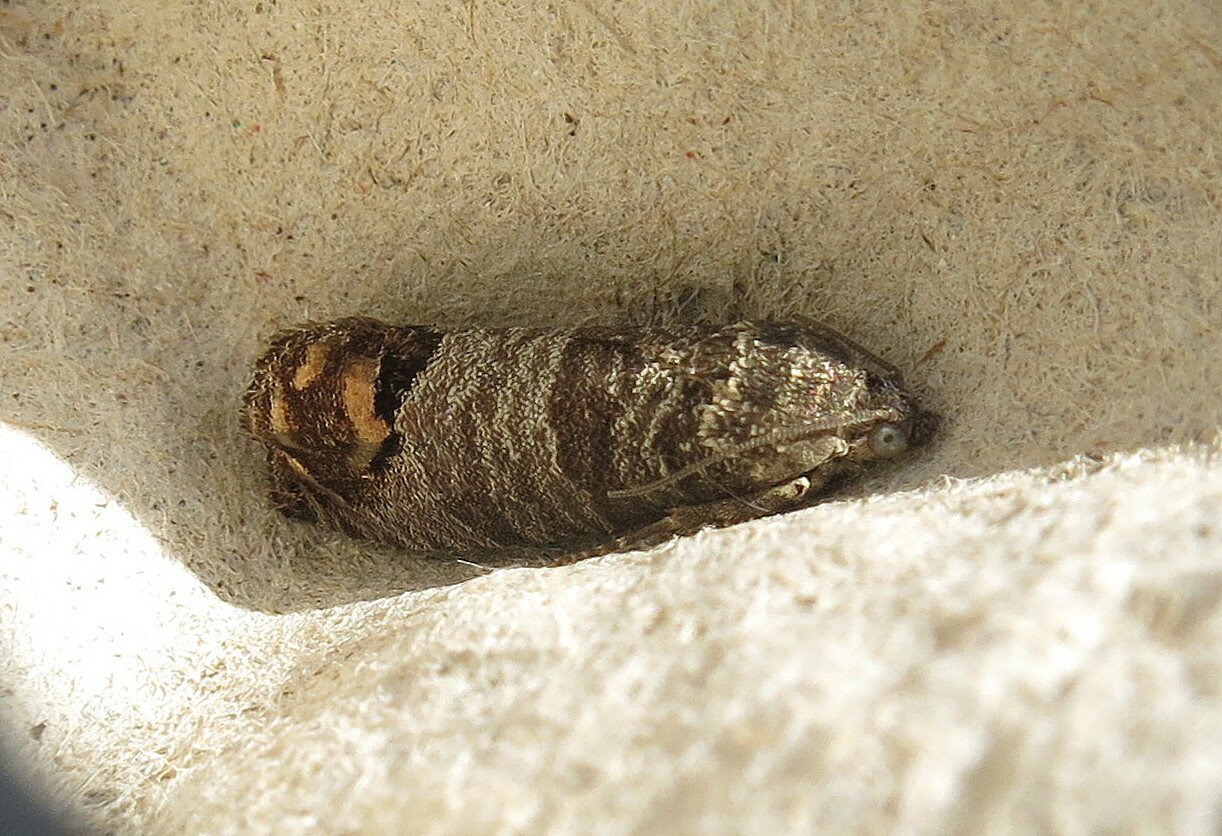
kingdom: Animalia
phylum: Arthropoda
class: Insecta
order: Lepidoptera
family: Tortricidae
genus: Cydia
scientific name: Cydia pomonella
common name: Codling moth
